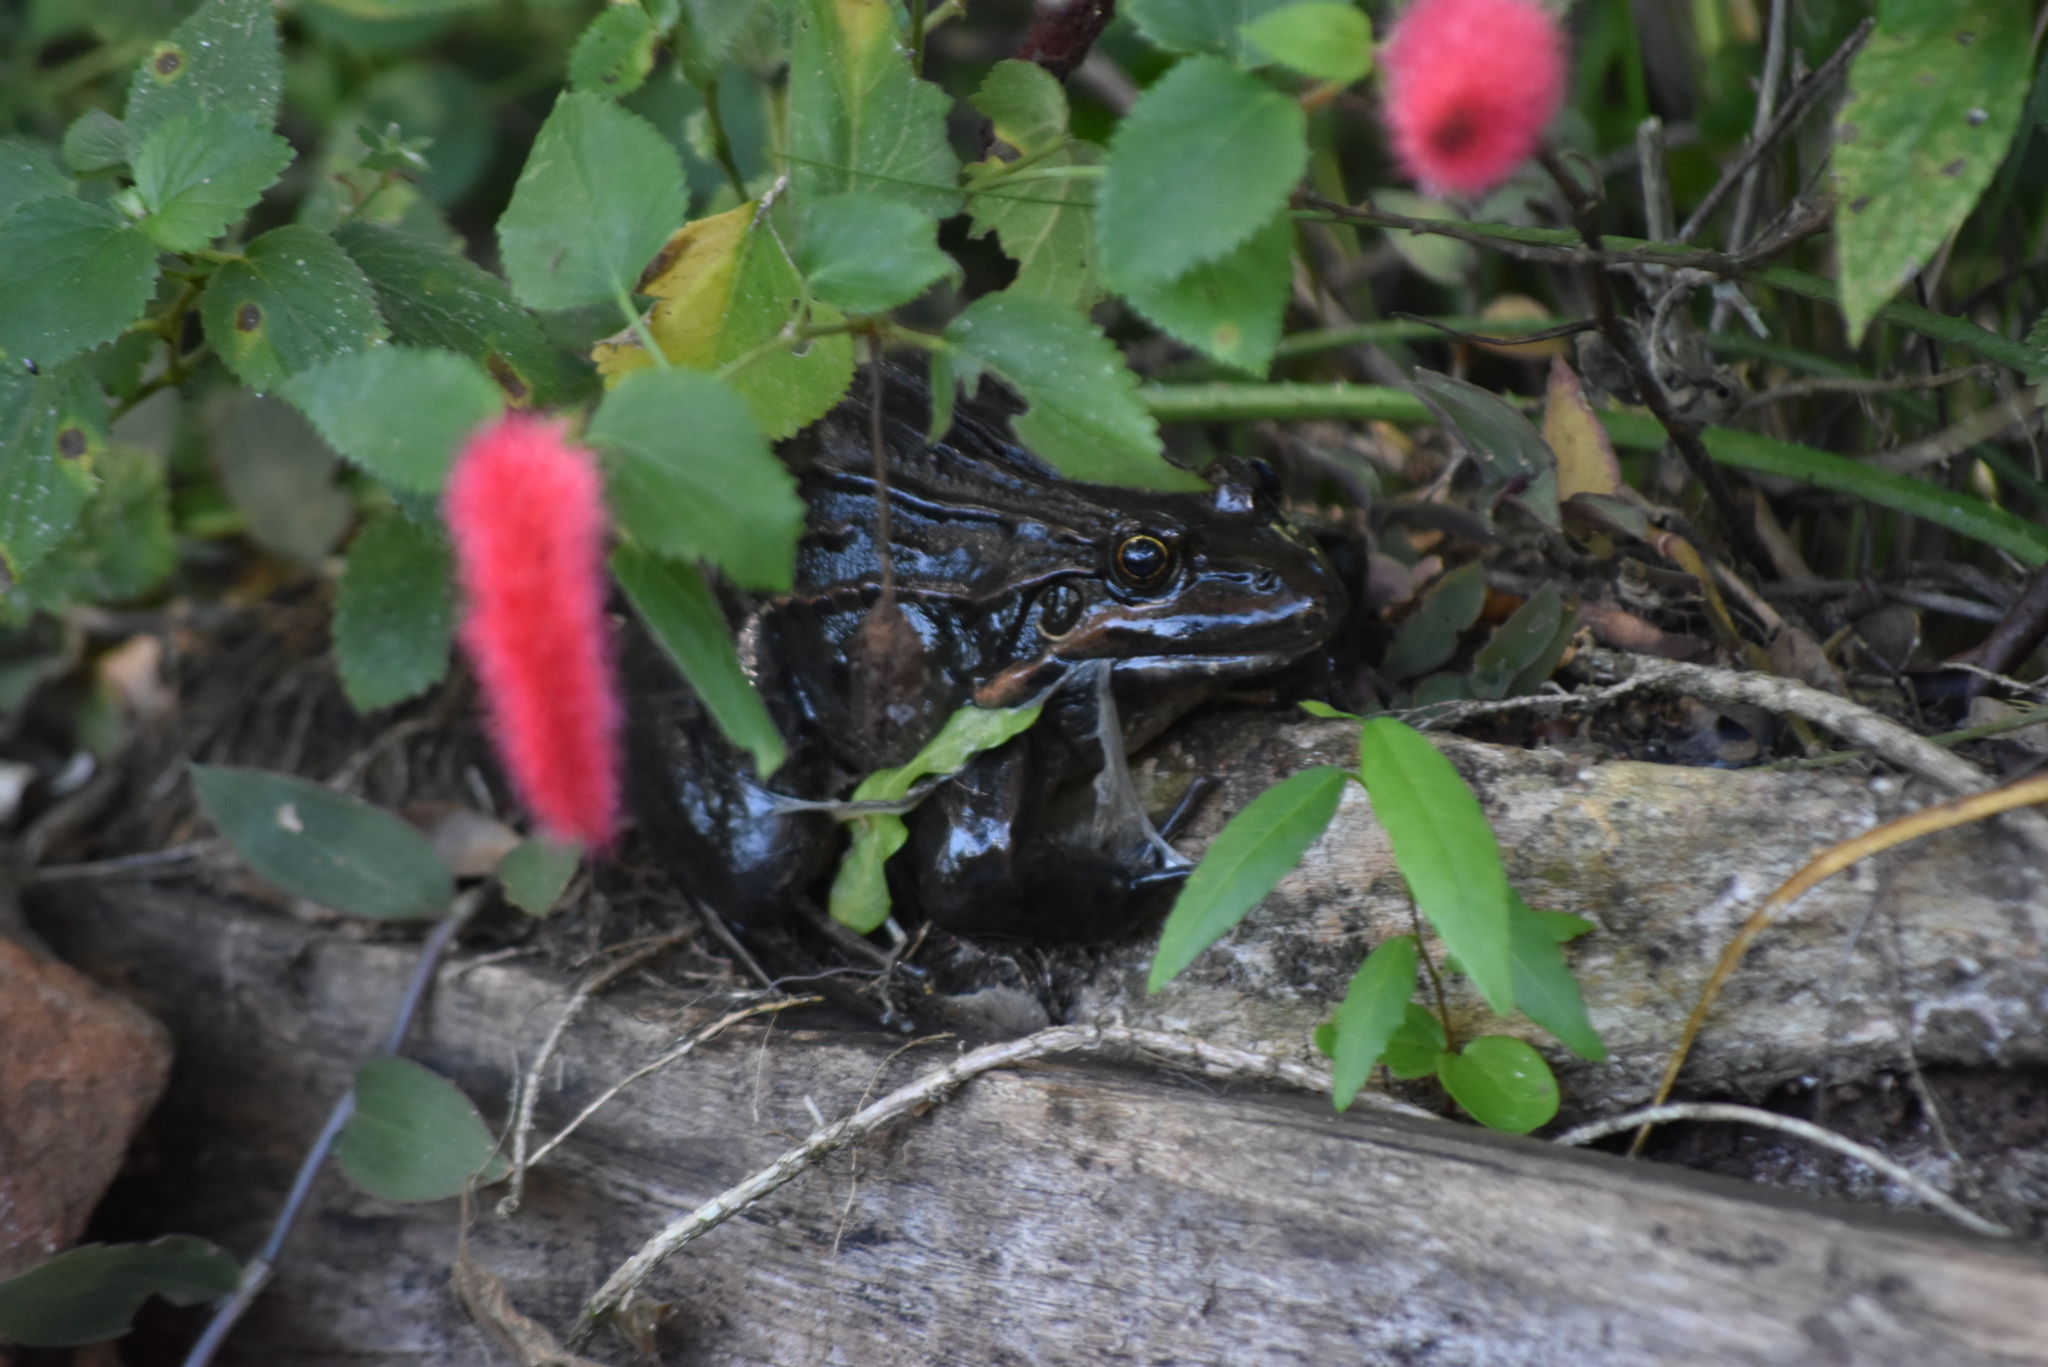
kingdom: Animalia
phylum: Chordata
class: Amphibia
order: Anura
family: Leptodactylidae
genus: Leptodactylus
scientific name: Leptodactylus luctator
